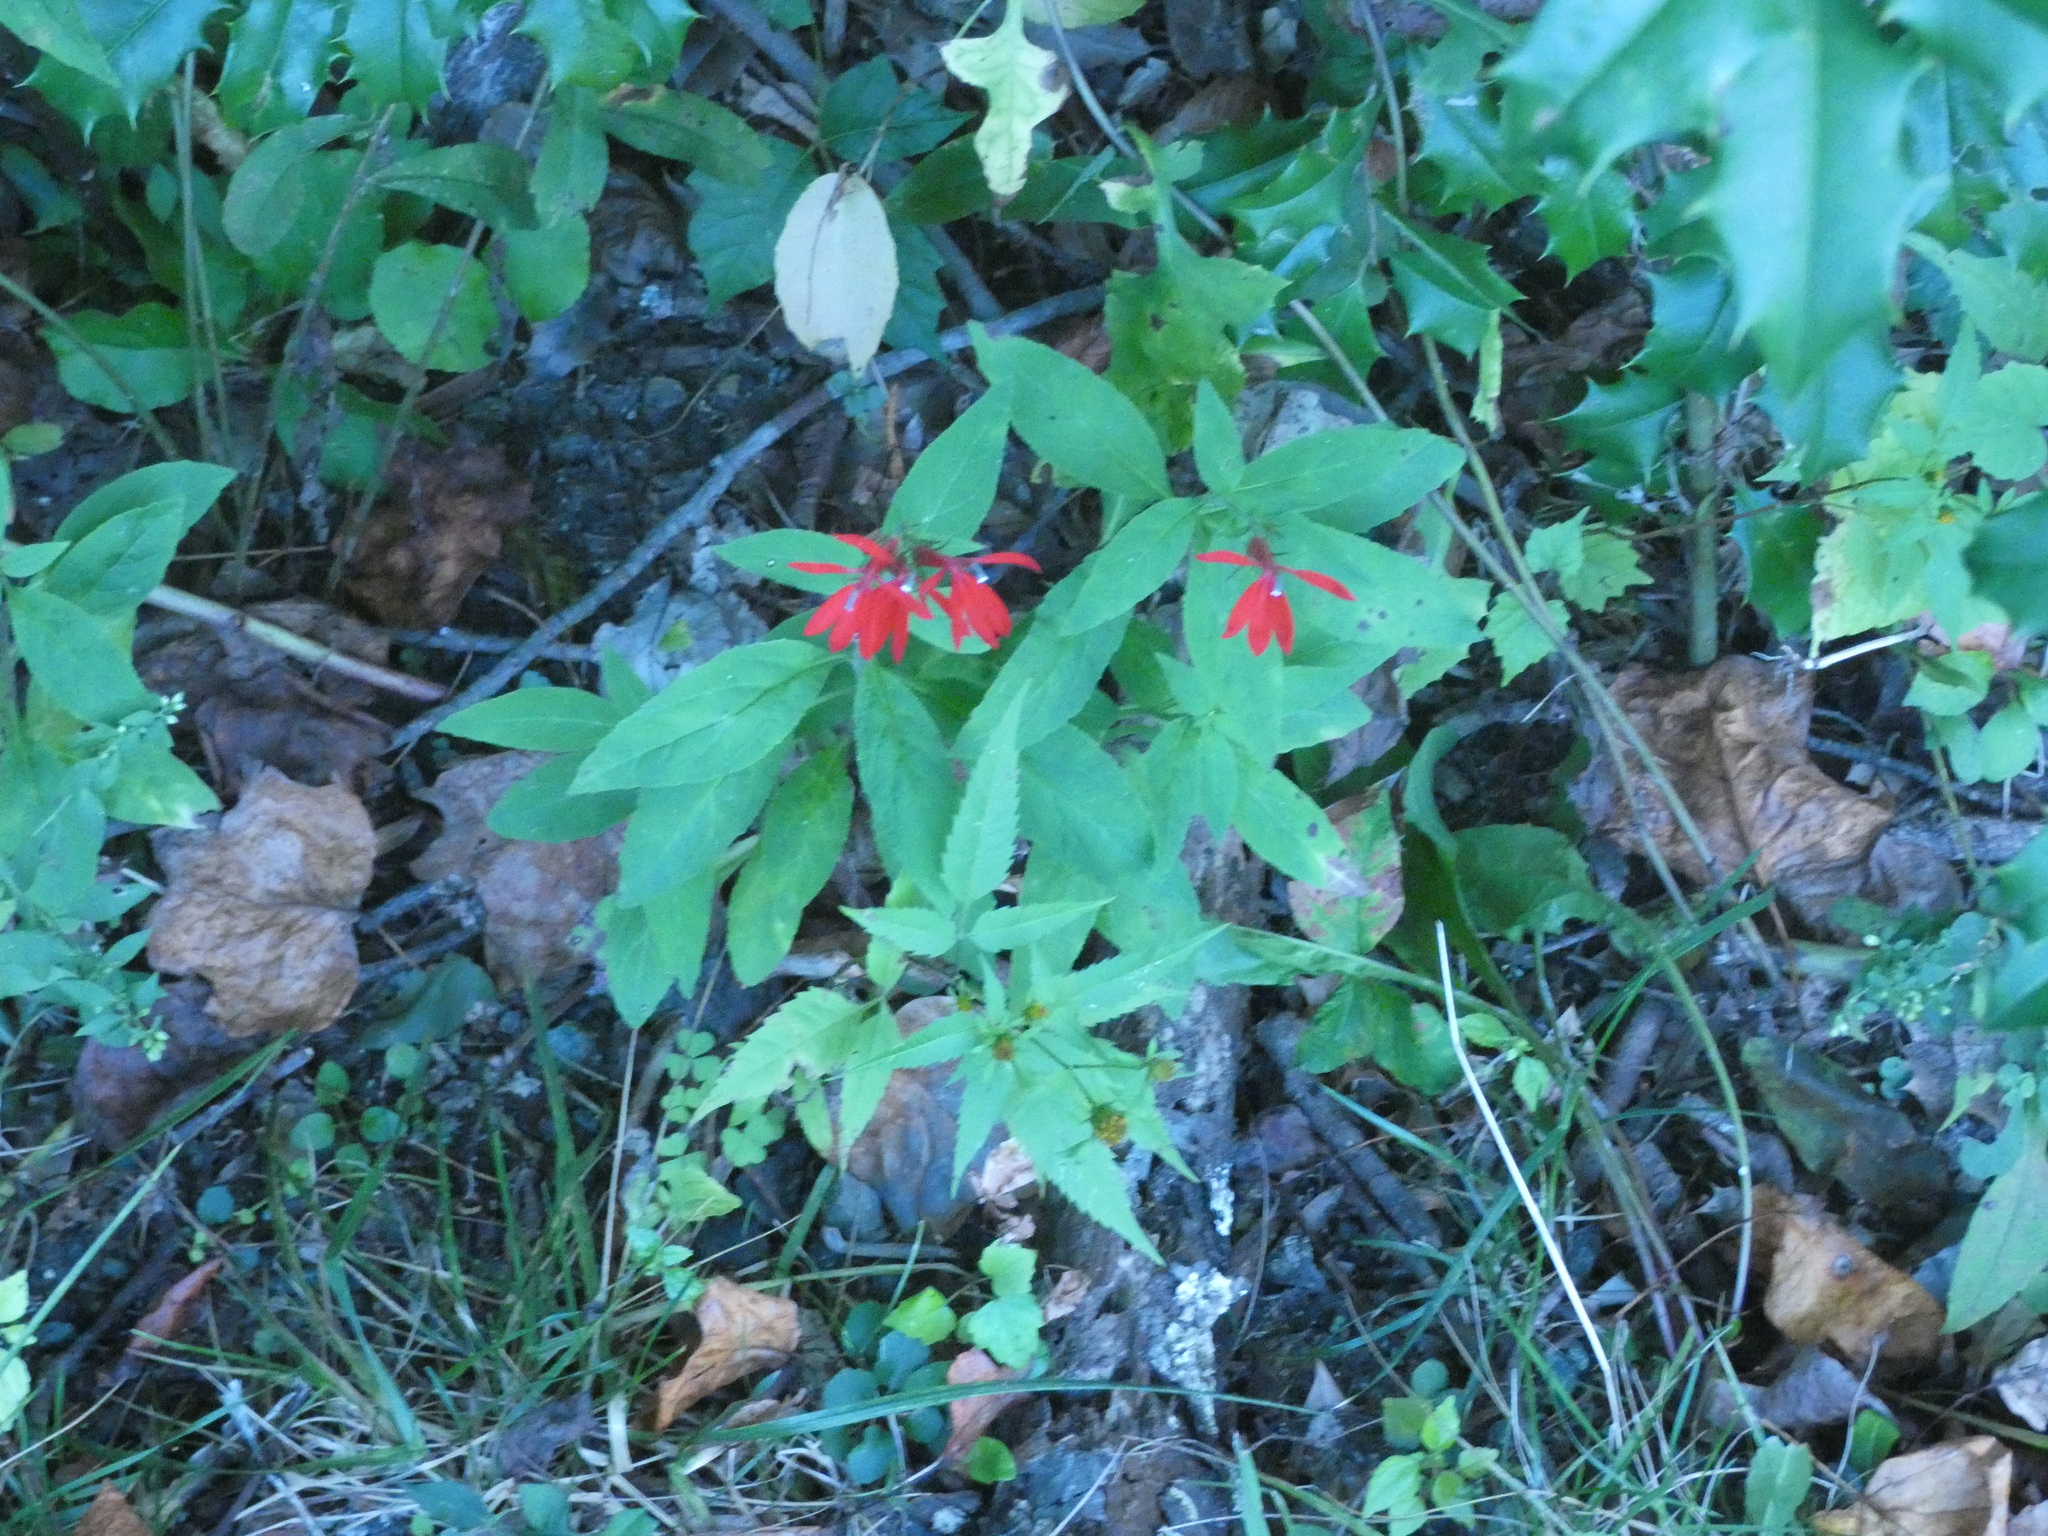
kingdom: Plantae
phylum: Tracheophyta
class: Magnoliopsida
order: Asterales
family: Campanulaceae
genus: Lobelia
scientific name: Lobelia cardinalis
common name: Cardinal flower
